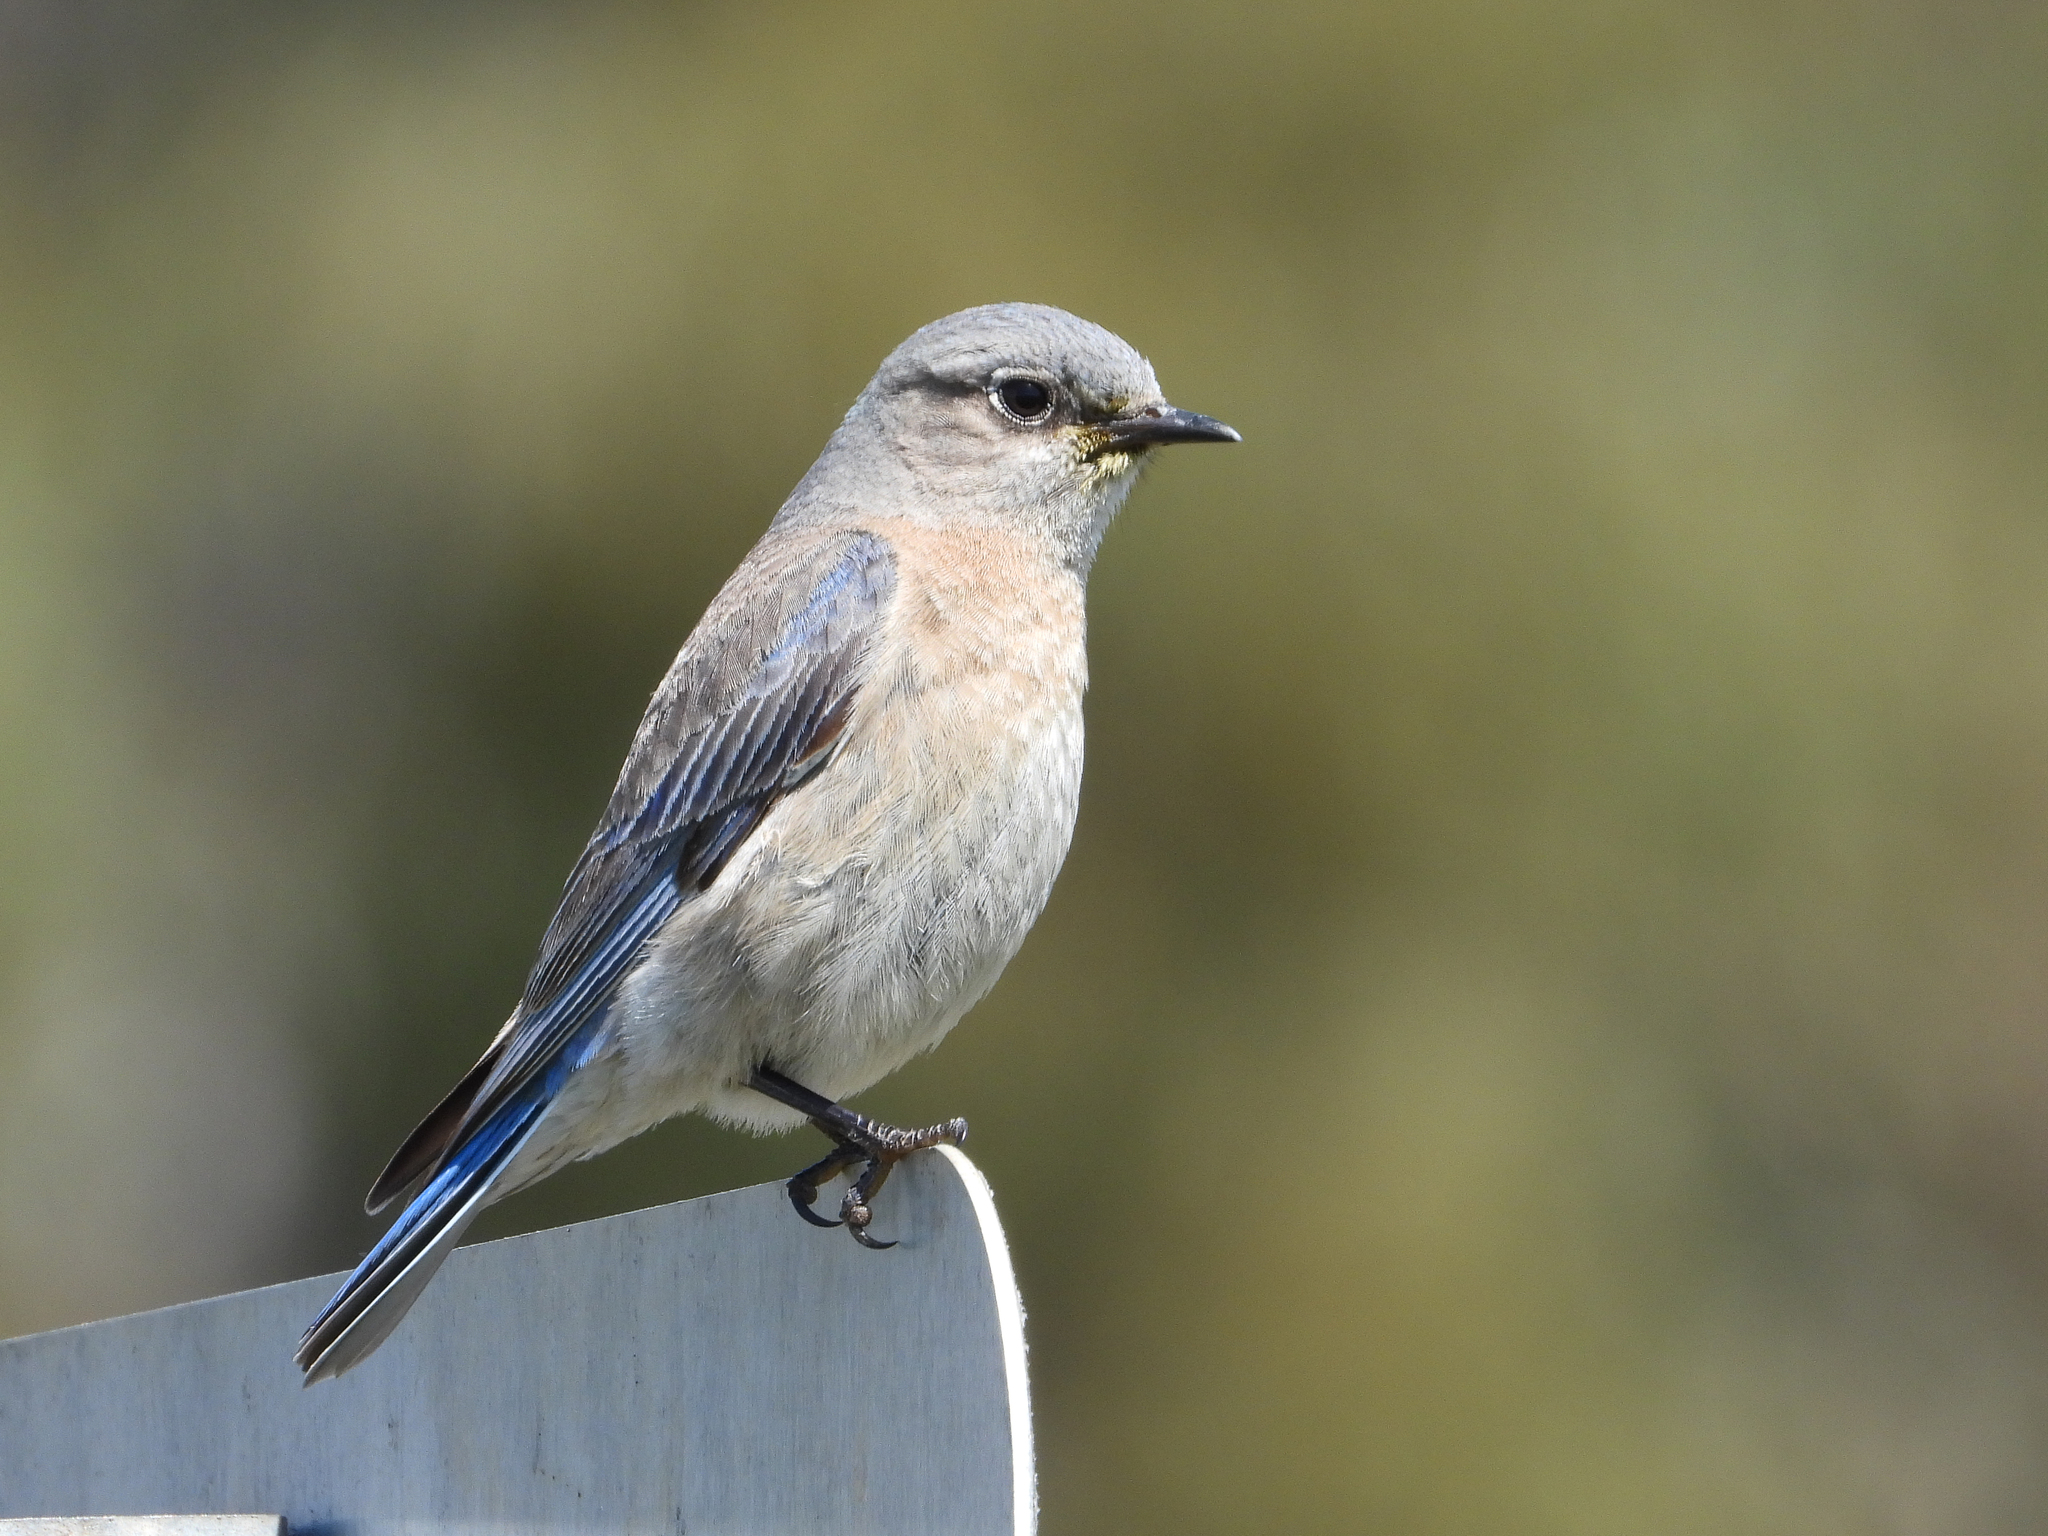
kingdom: Animalia
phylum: Chordata
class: Aves
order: Passeriformes
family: Turdidae
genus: Sialia
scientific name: Sialia mexicana
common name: Western bluebird
